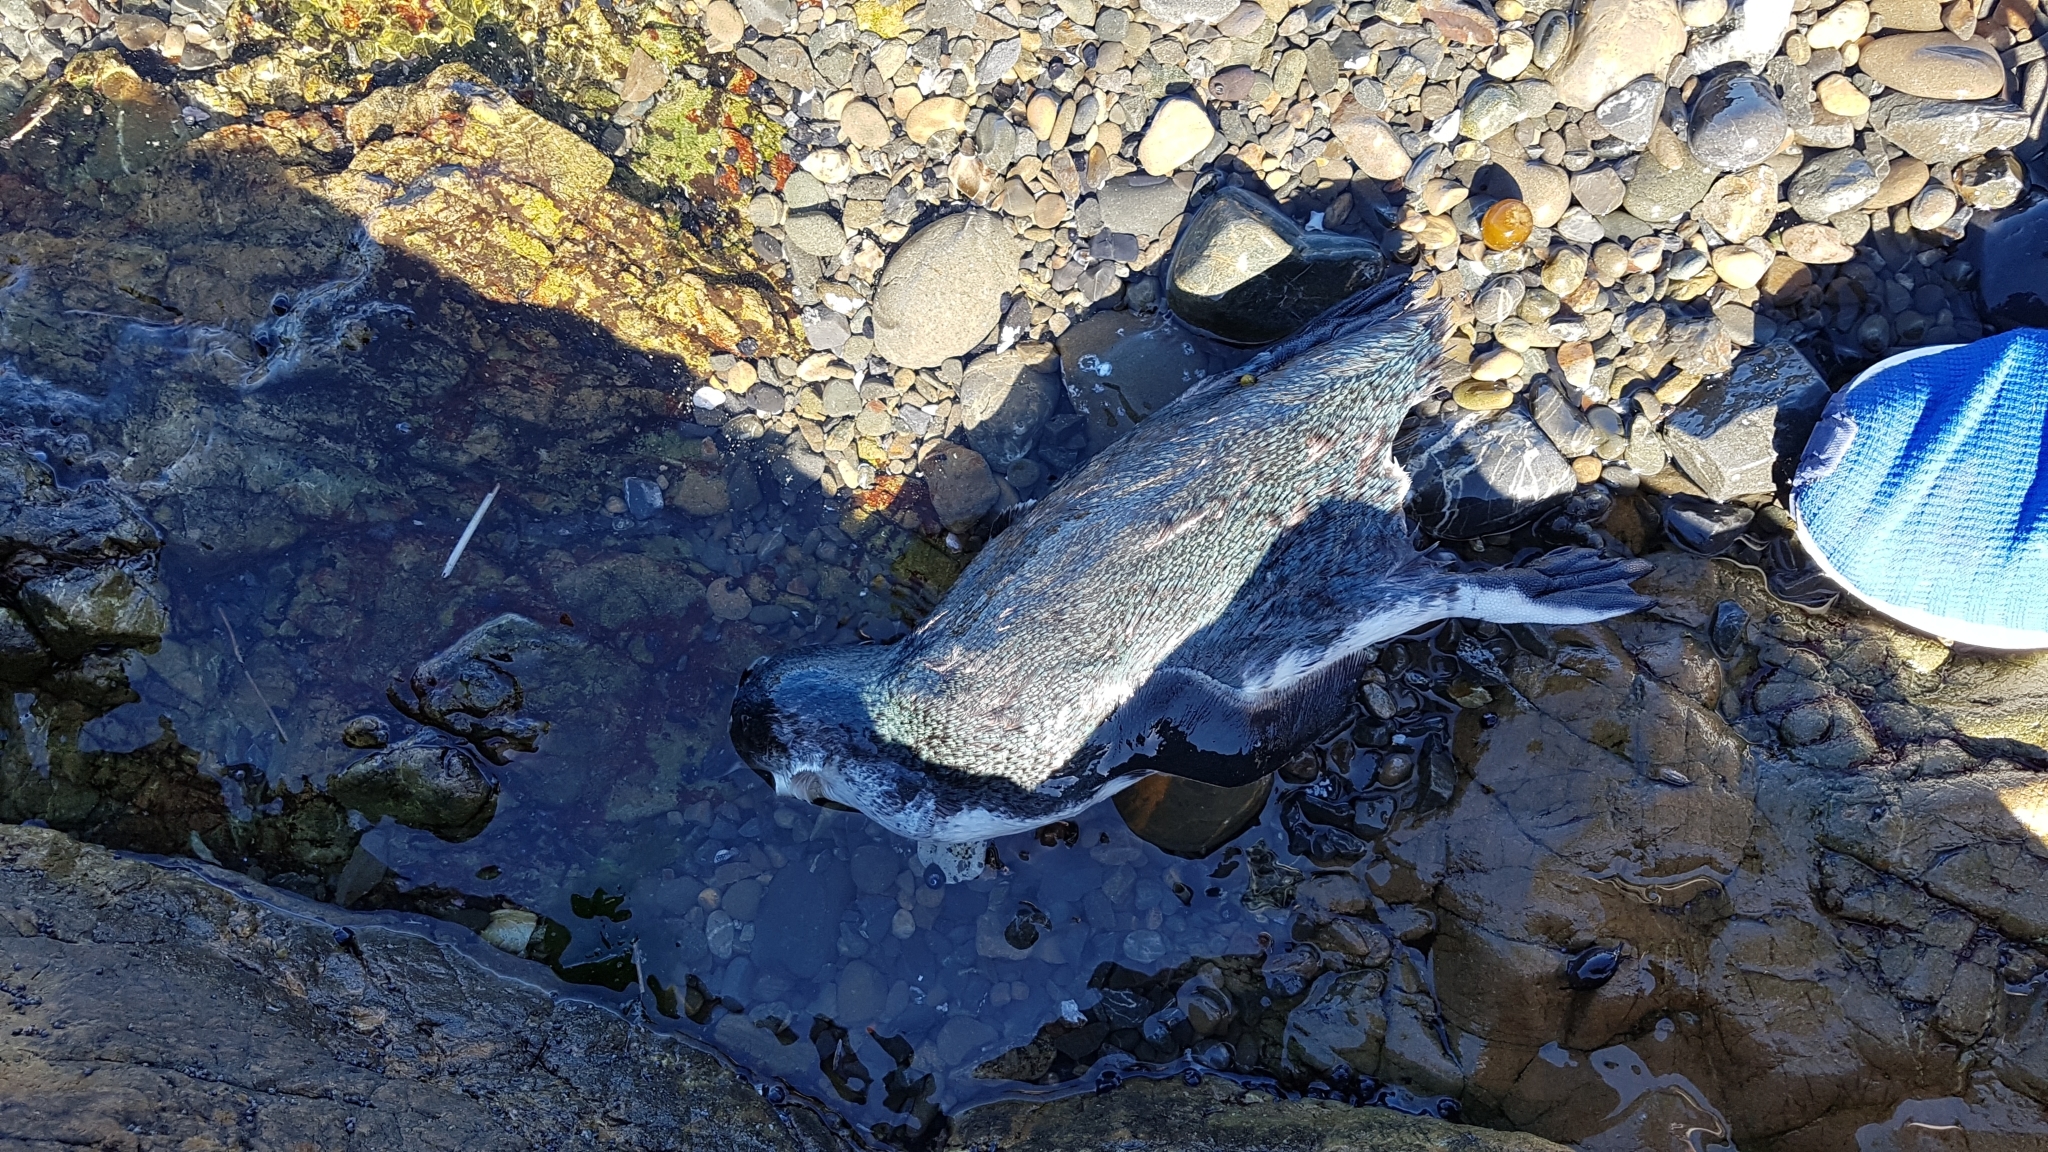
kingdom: Animalia
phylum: Chordata
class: Aves
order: Sphenisciformes
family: Spheniscidae
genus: Eudyptula
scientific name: Eudyptula minor
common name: Little penguin
